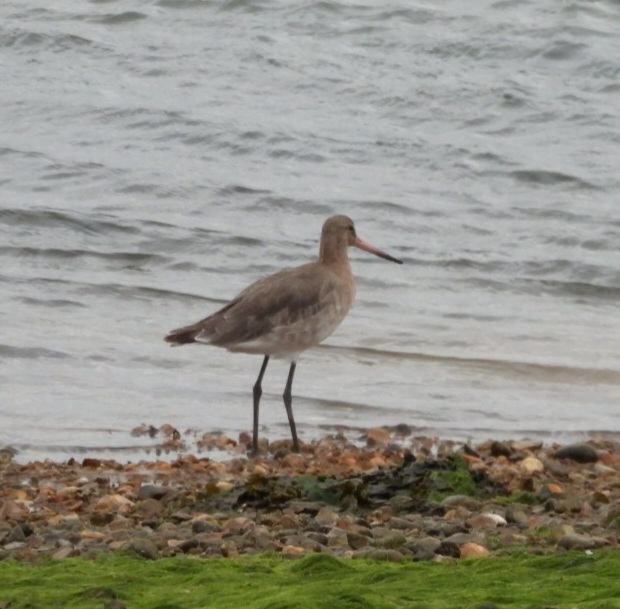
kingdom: Animalia
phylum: Chordata
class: Aves
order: Charadriiformes
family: Scolopacidae
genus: Limosa
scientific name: Limosa limosa
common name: Black-tailed godwit
